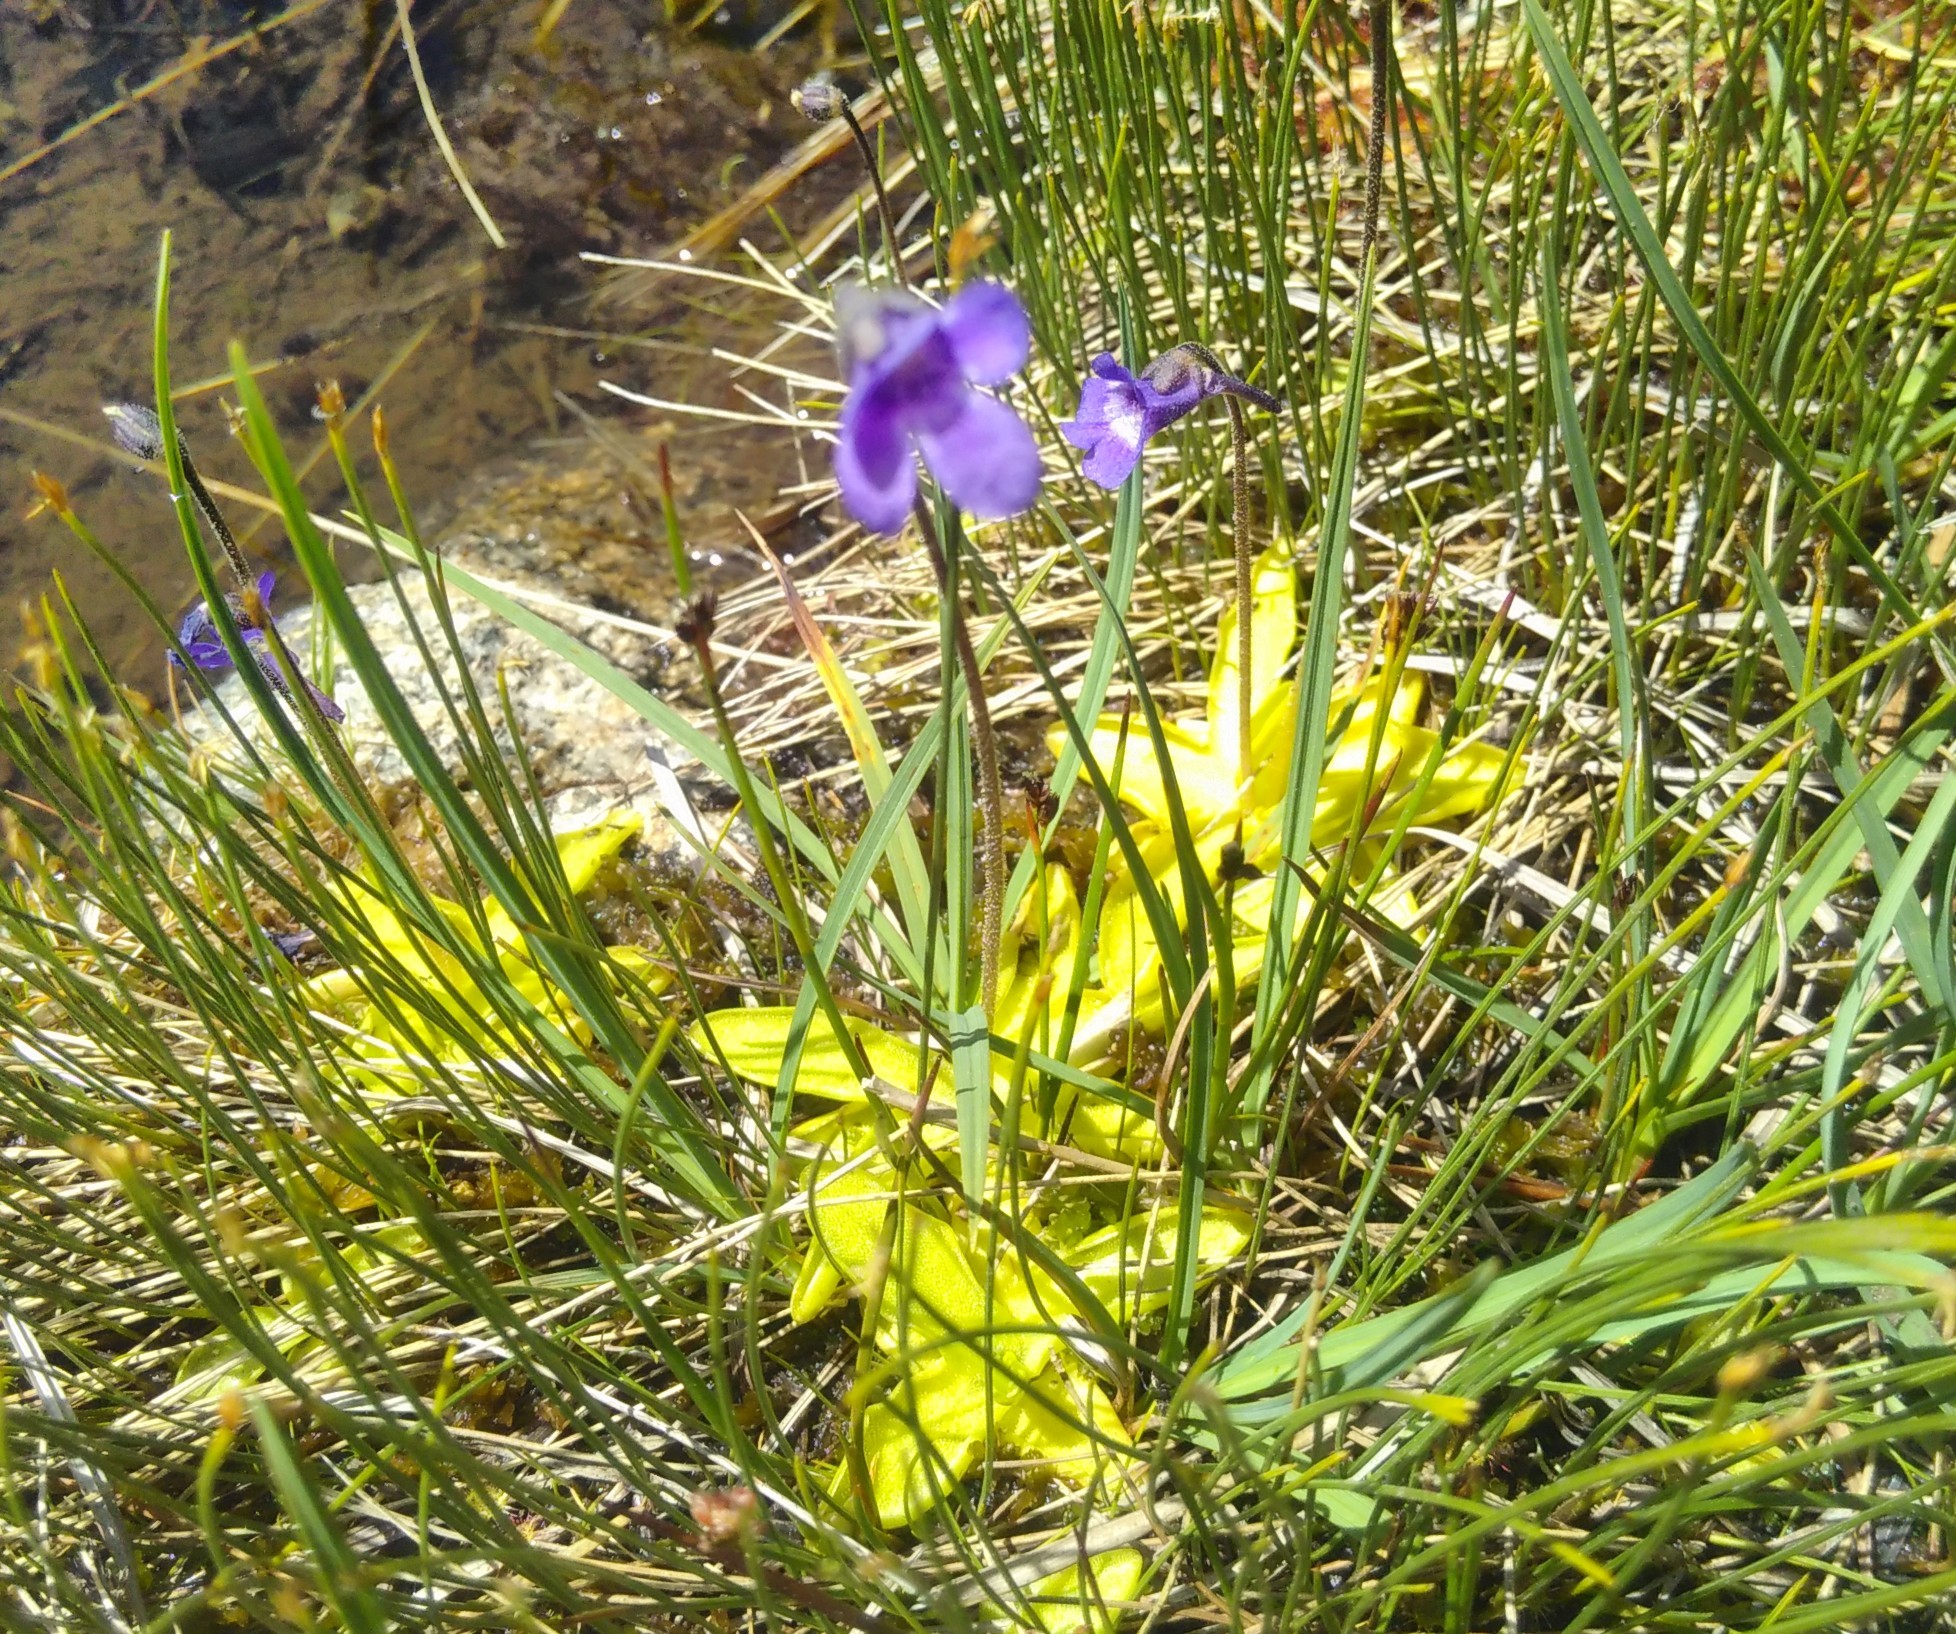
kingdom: Plantae
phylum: Tracheophyta
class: Magnoliopsida
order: Lamiales
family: Lentibulariaceae
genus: Pinguicula
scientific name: Pinguicula vulgaris
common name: Common butterwort
